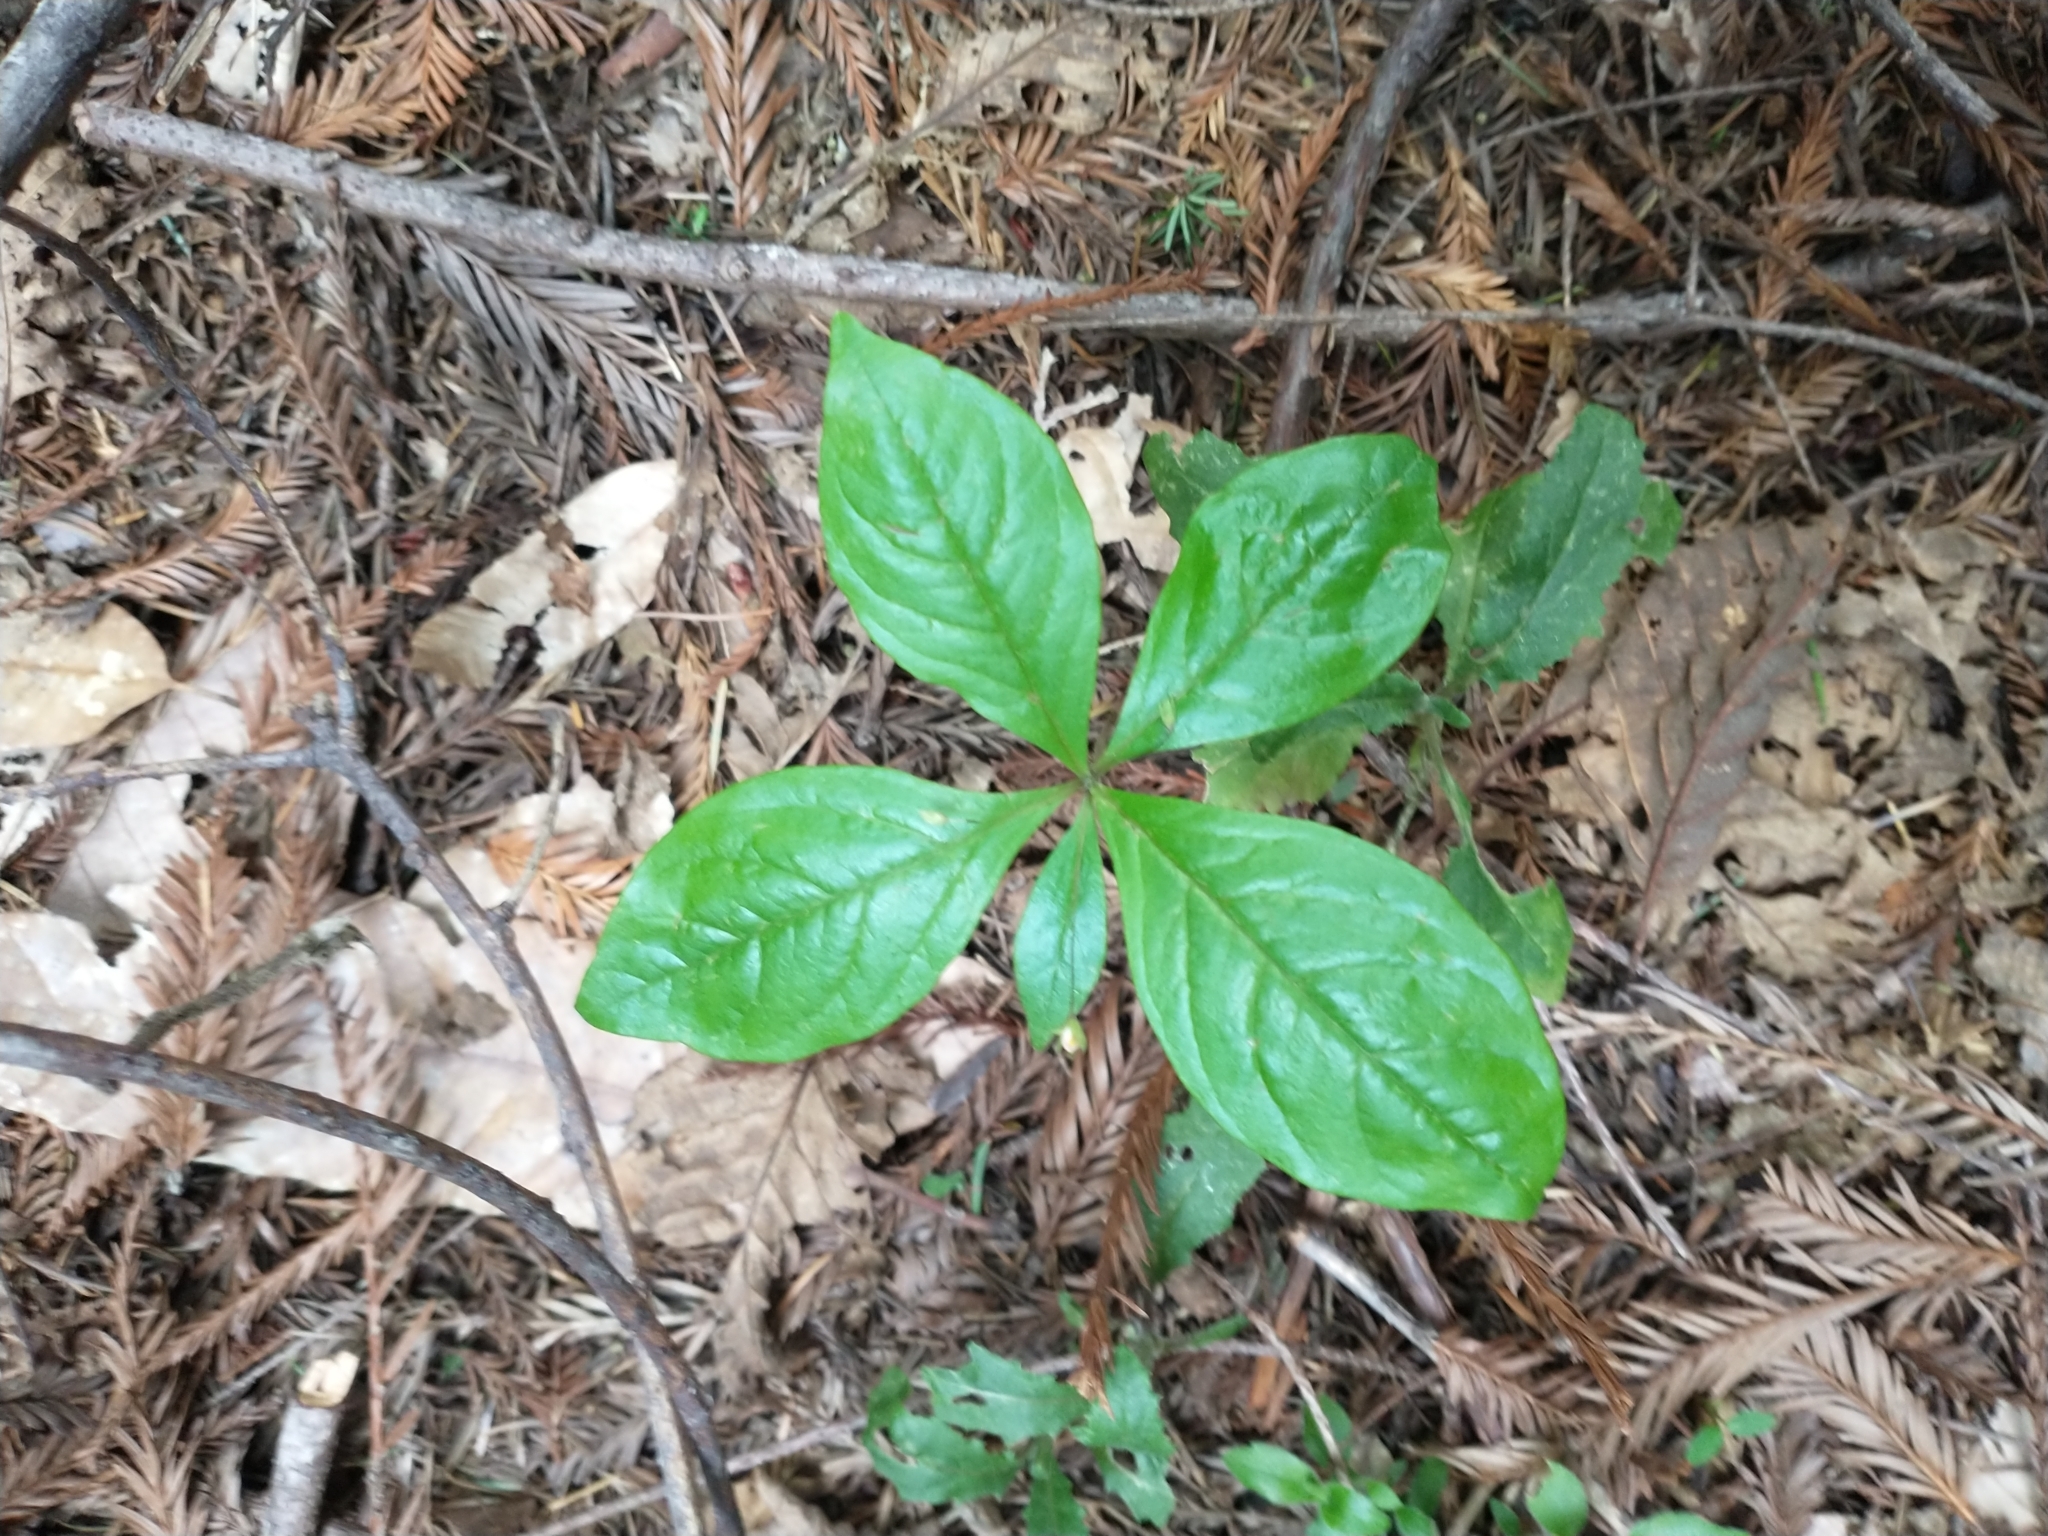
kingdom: Plantae
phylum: Tracheophyta
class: Magnoliopsida
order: Ericales
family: Primulaceae
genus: Lysimachia
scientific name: Lysimachia latifolia
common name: Pacific starflower
